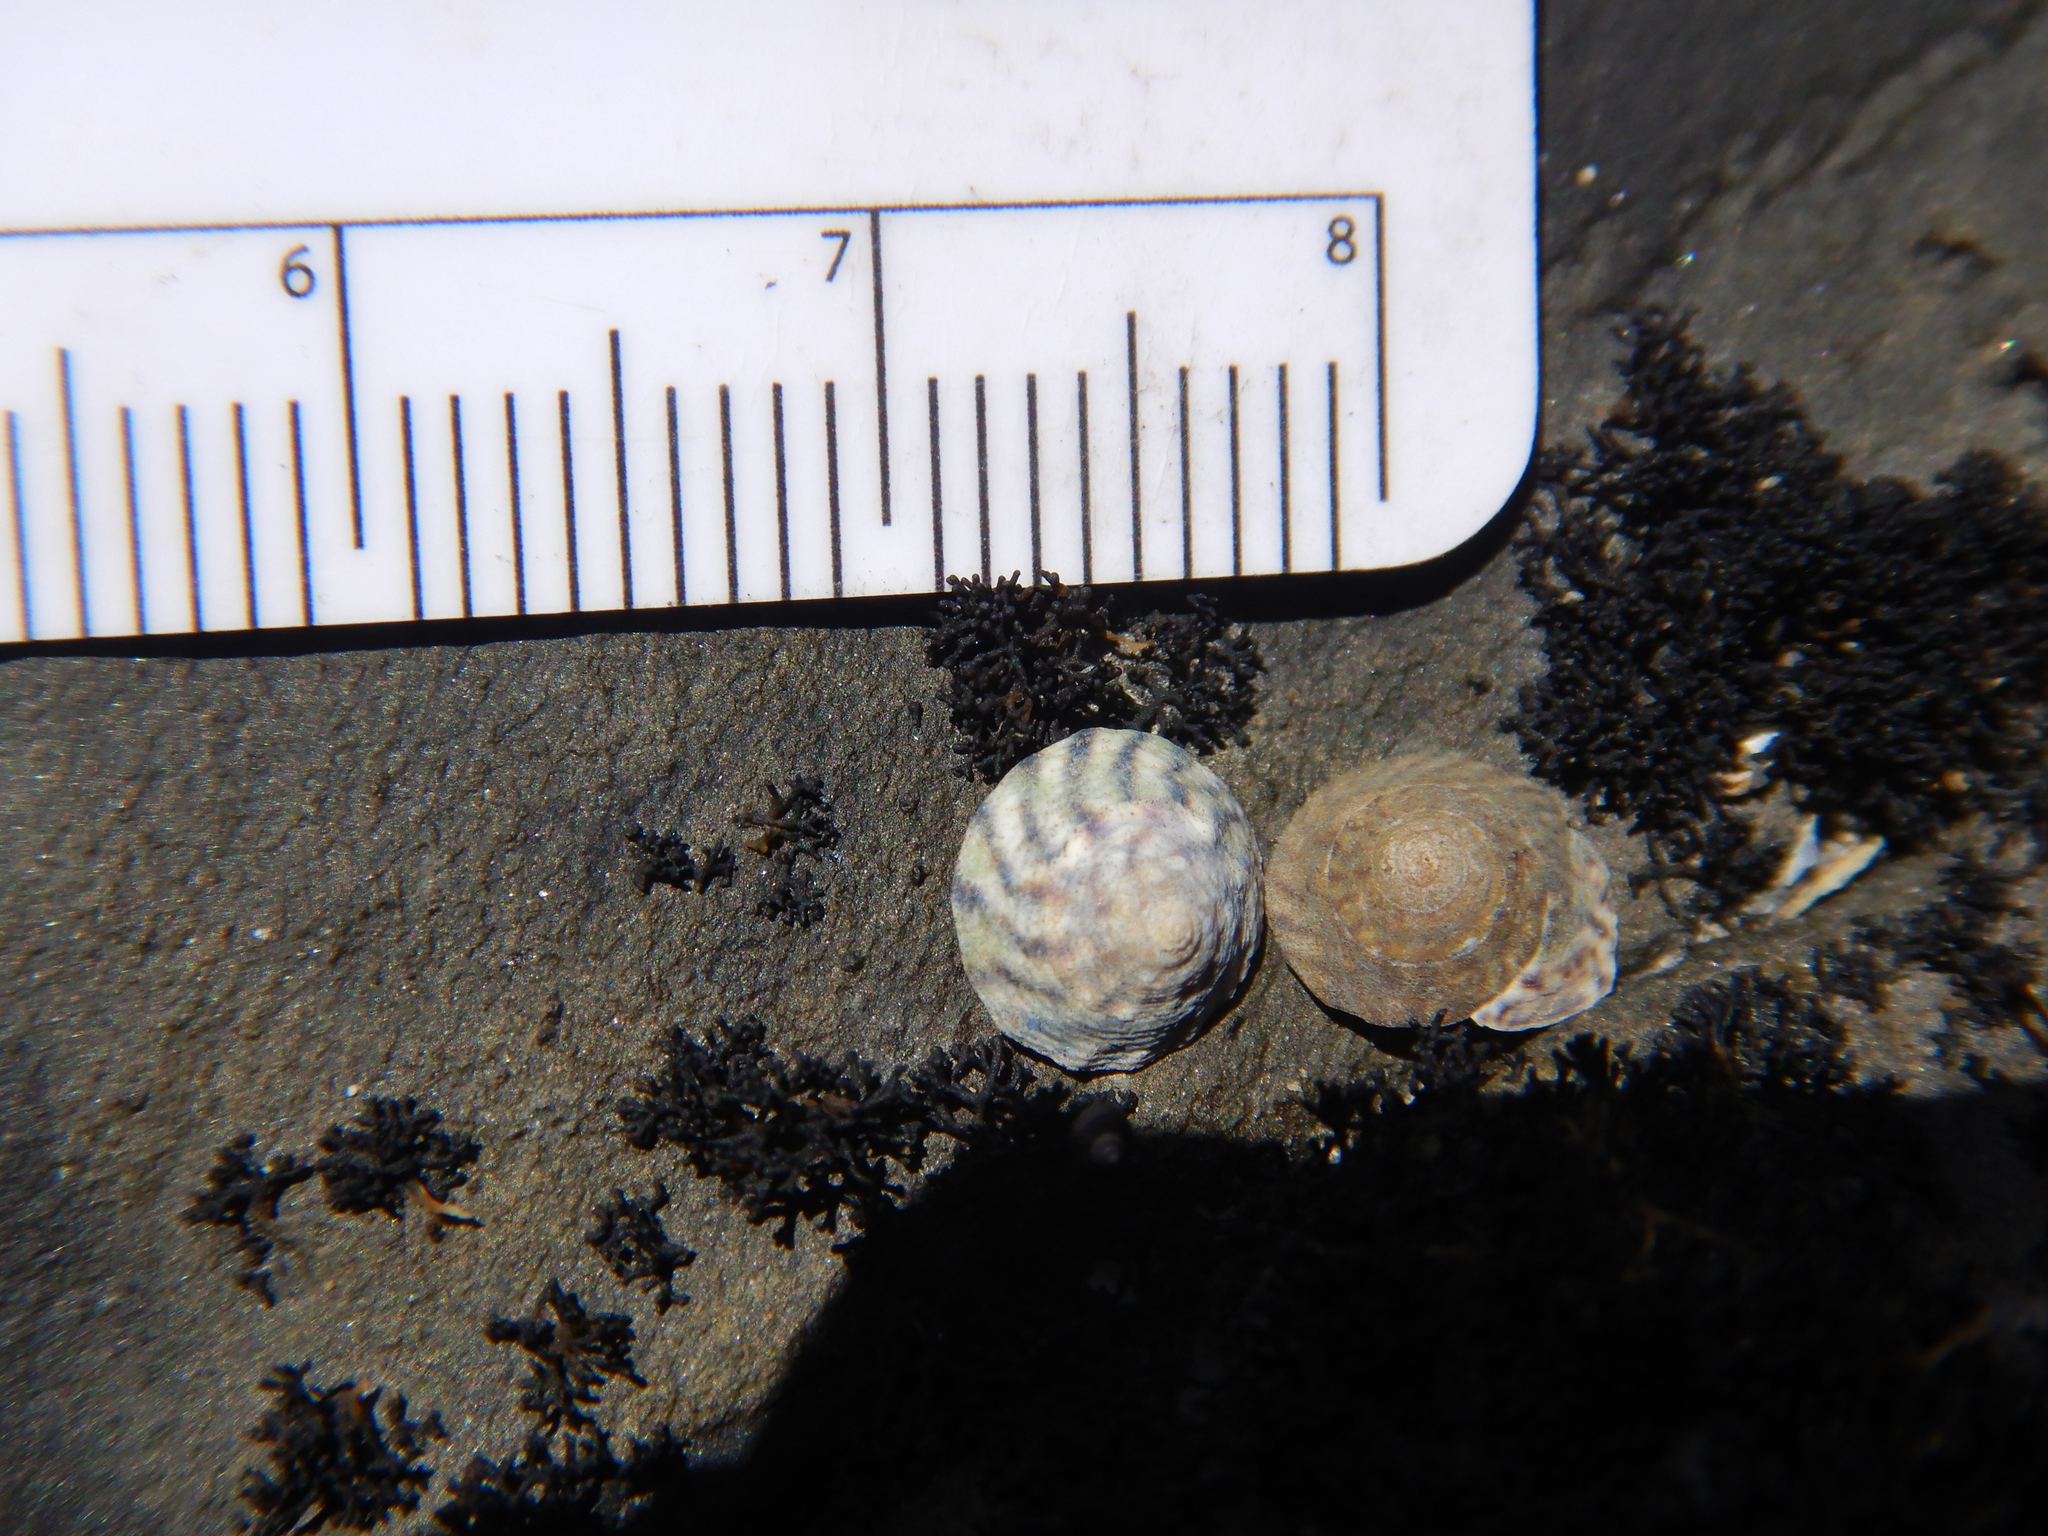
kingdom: Animalia
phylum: Mollusca
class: Gastropoda
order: Littorinimorpha
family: Littorinidae
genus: Bembicium
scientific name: Bembicium nanum
